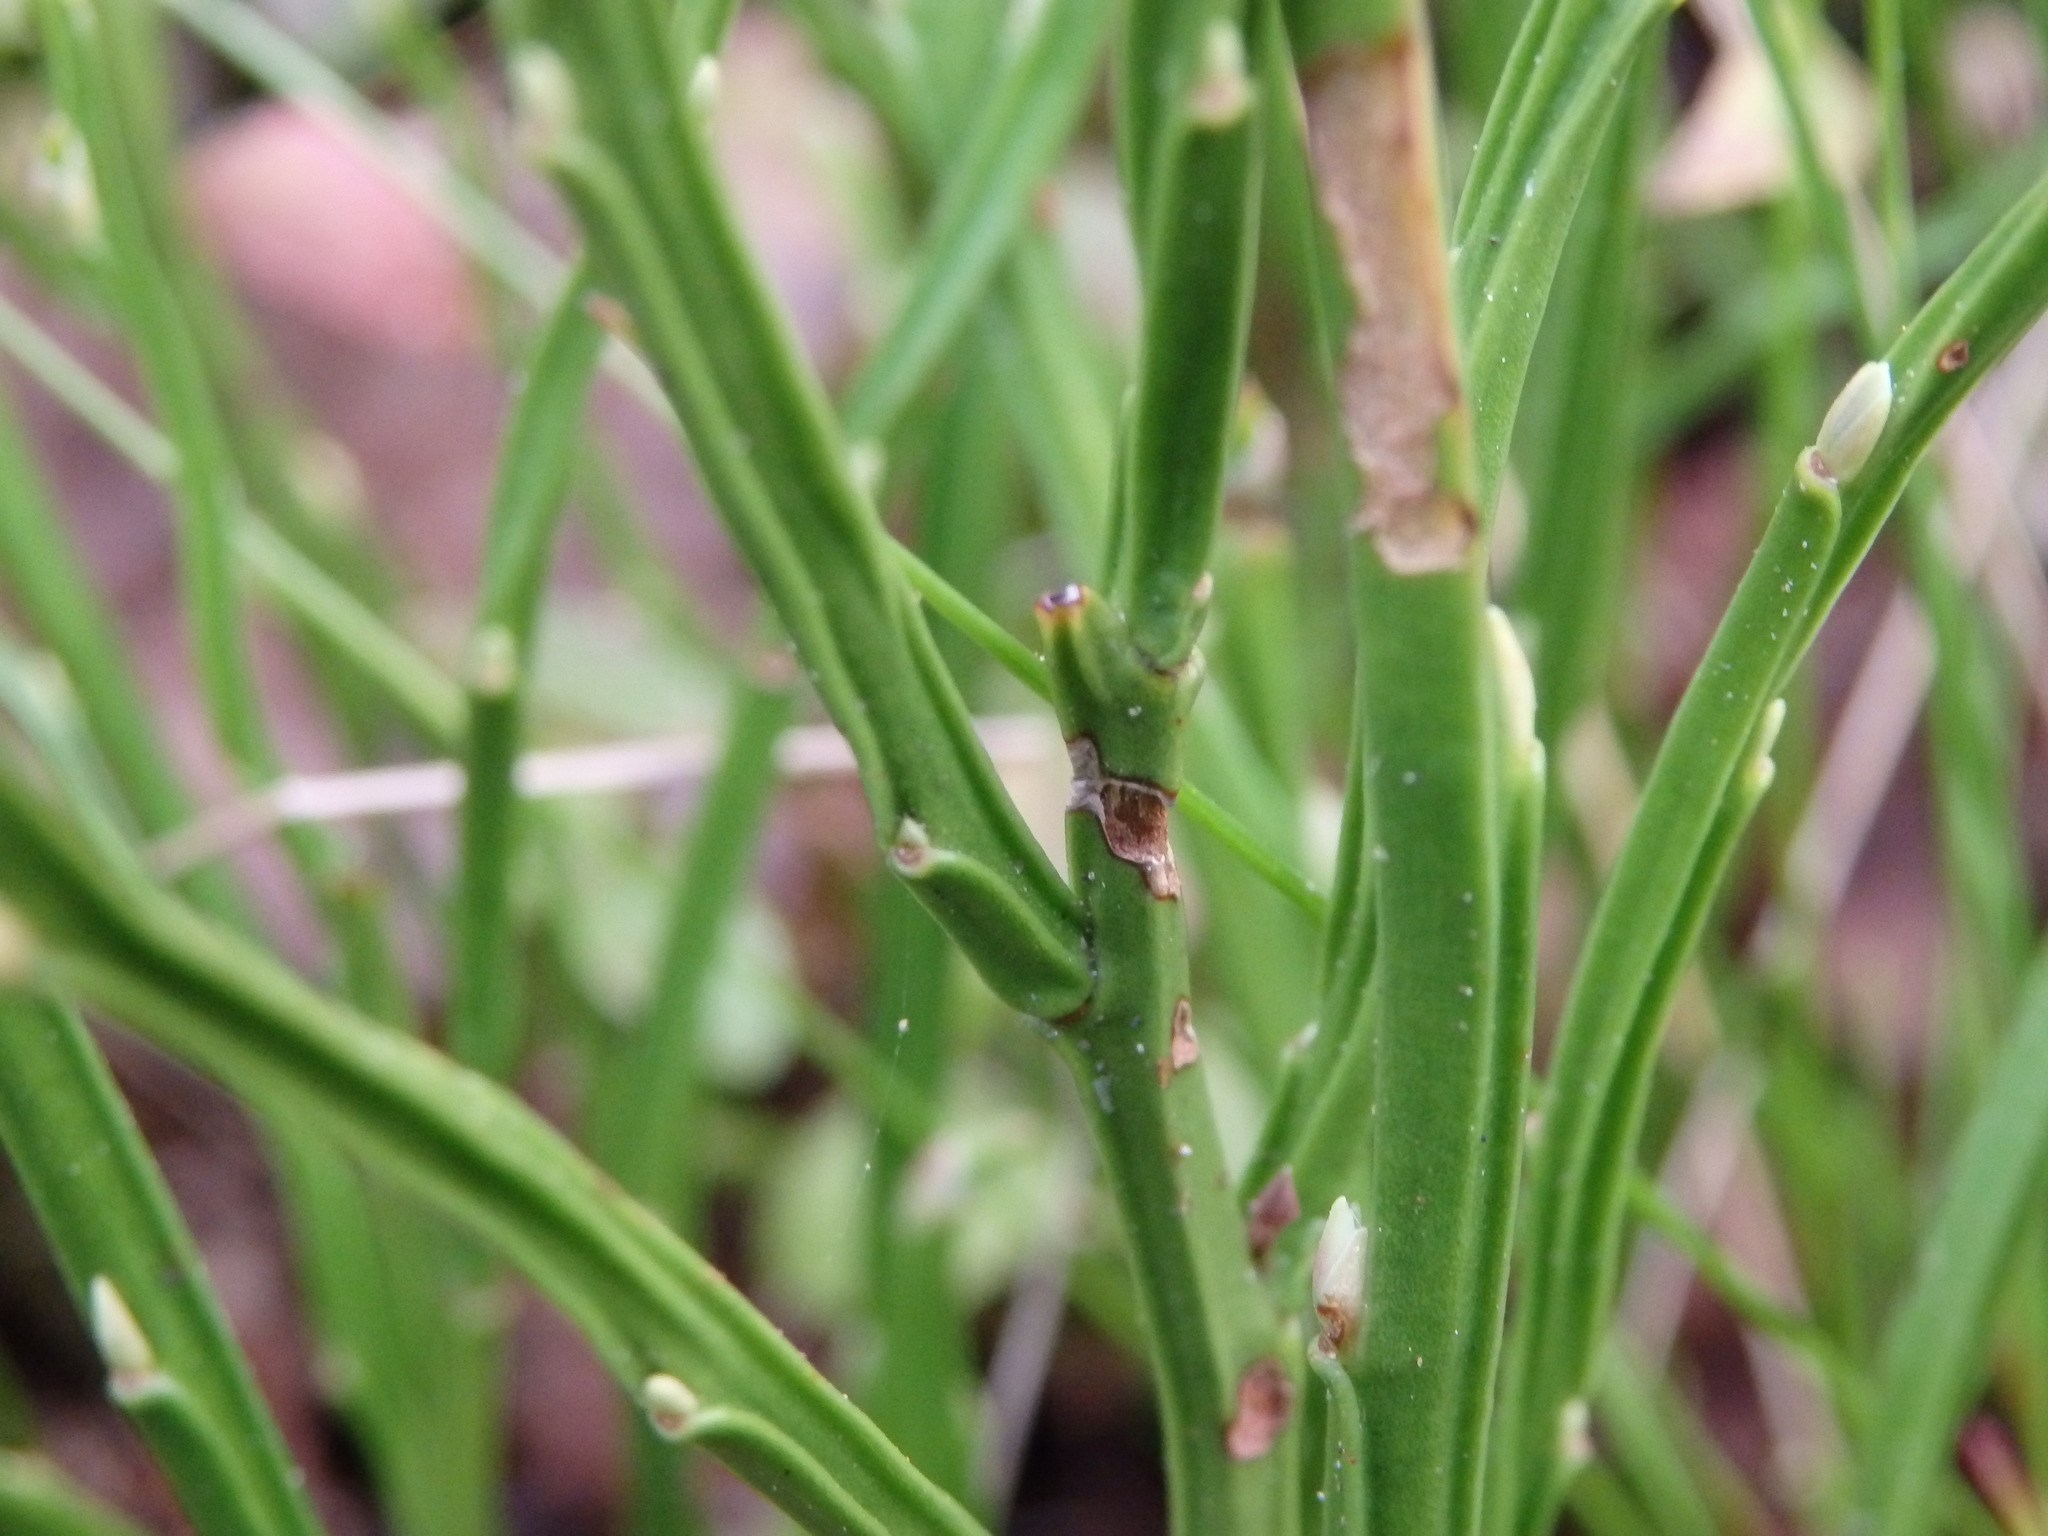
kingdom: Plantae
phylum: Tracheophyta
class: Magnoliopsida
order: Ericales
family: Ericaceae
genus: Vaccinium
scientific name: Vaccinium myrtillus
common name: Bilberry
